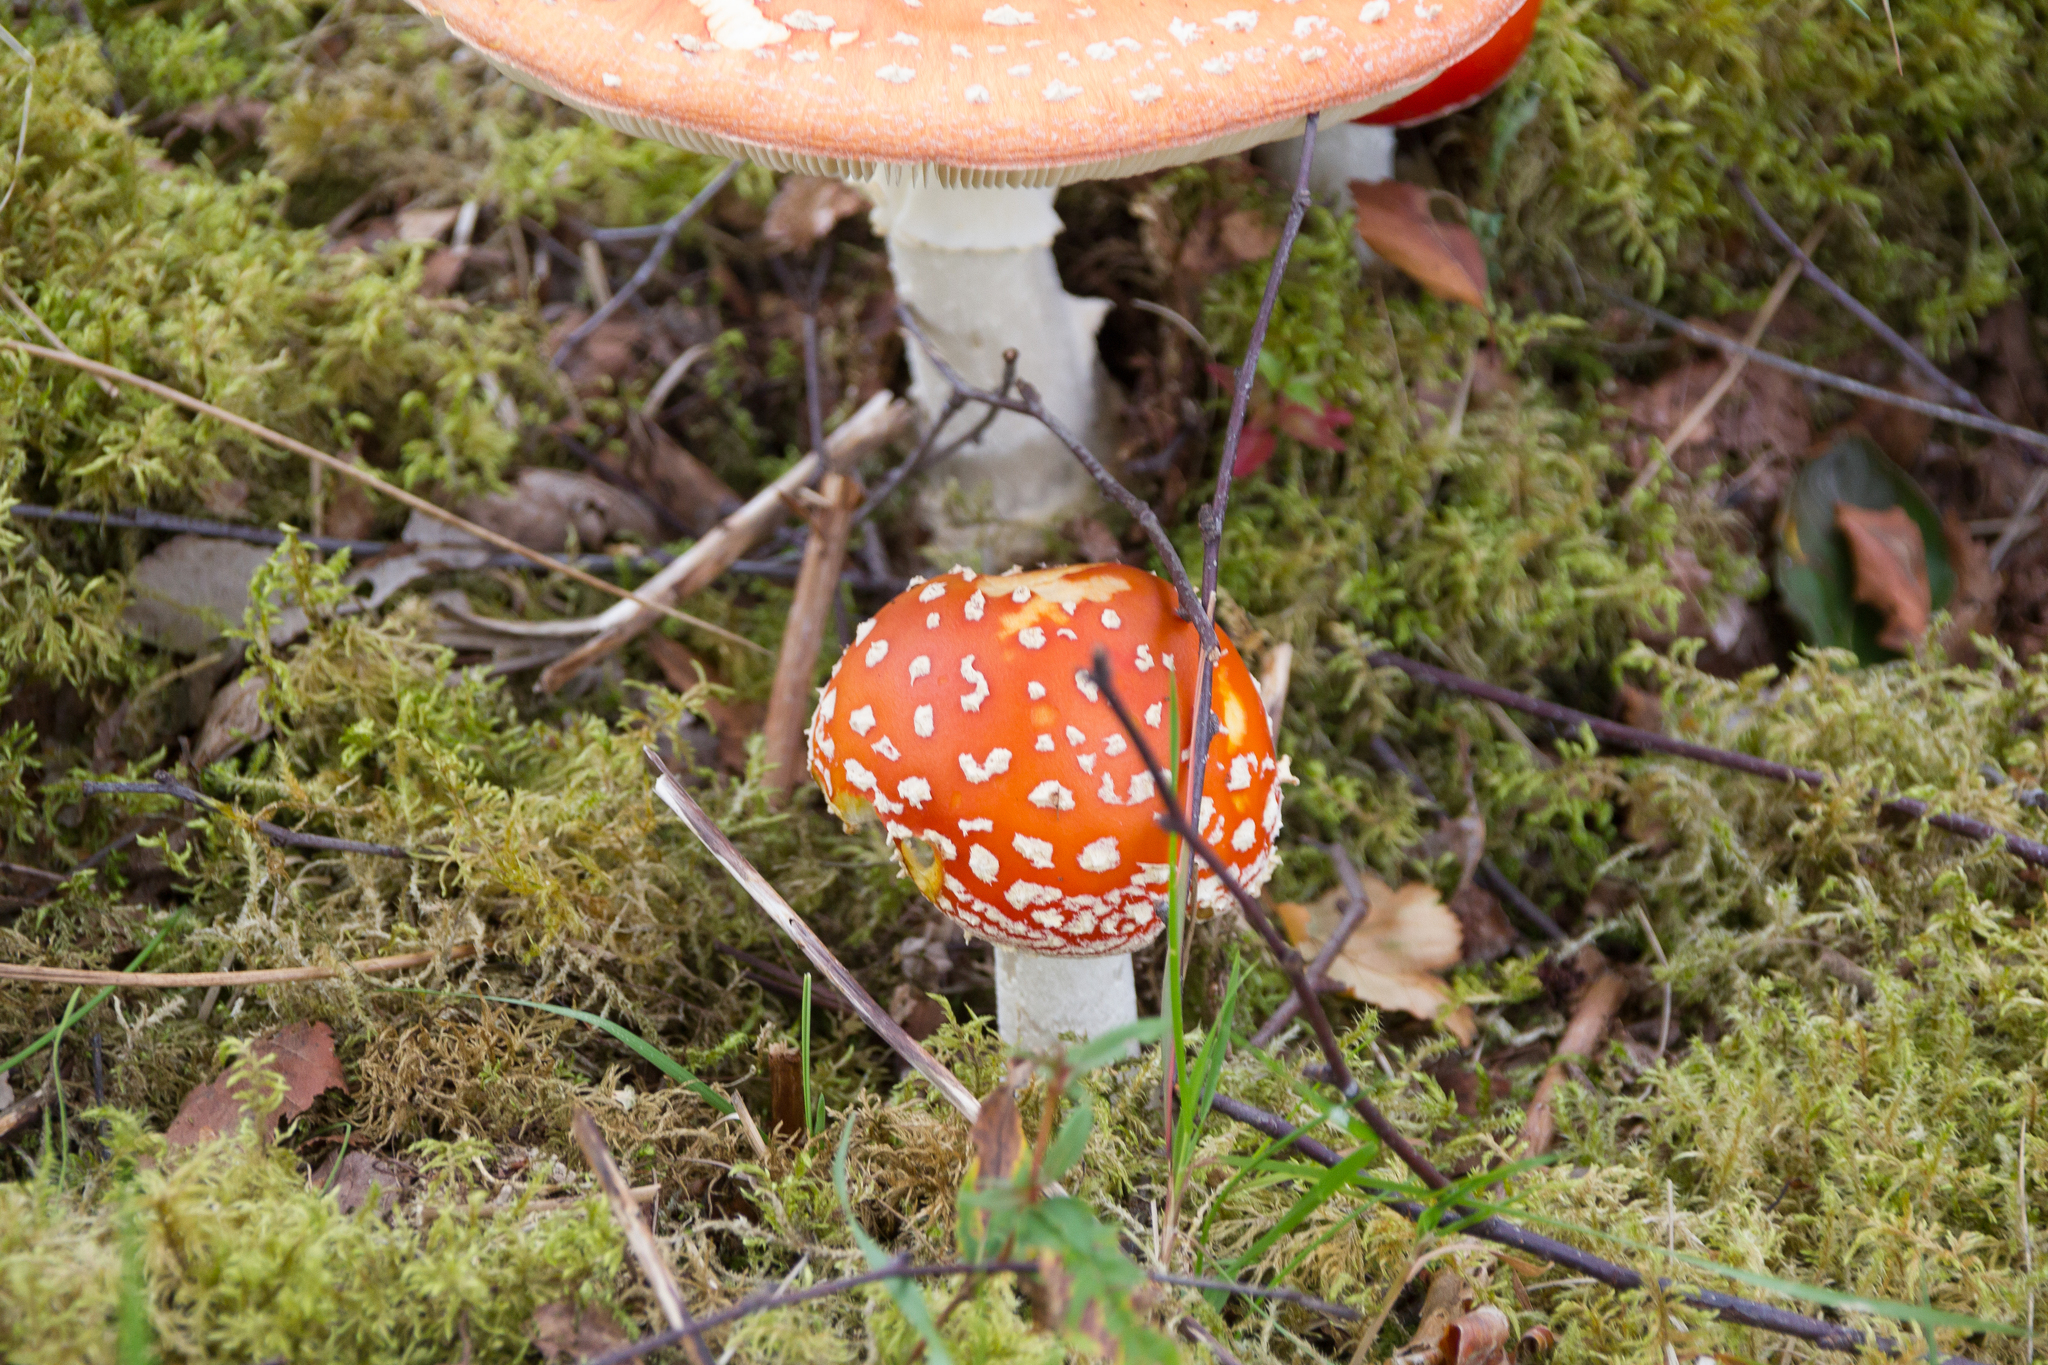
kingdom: Fungi
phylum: Basidiomycota
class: Agaricomycetes
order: Agaricales
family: Amanitaceae
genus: Amanita
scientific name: Amanita muscaria
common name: Fly agaric
